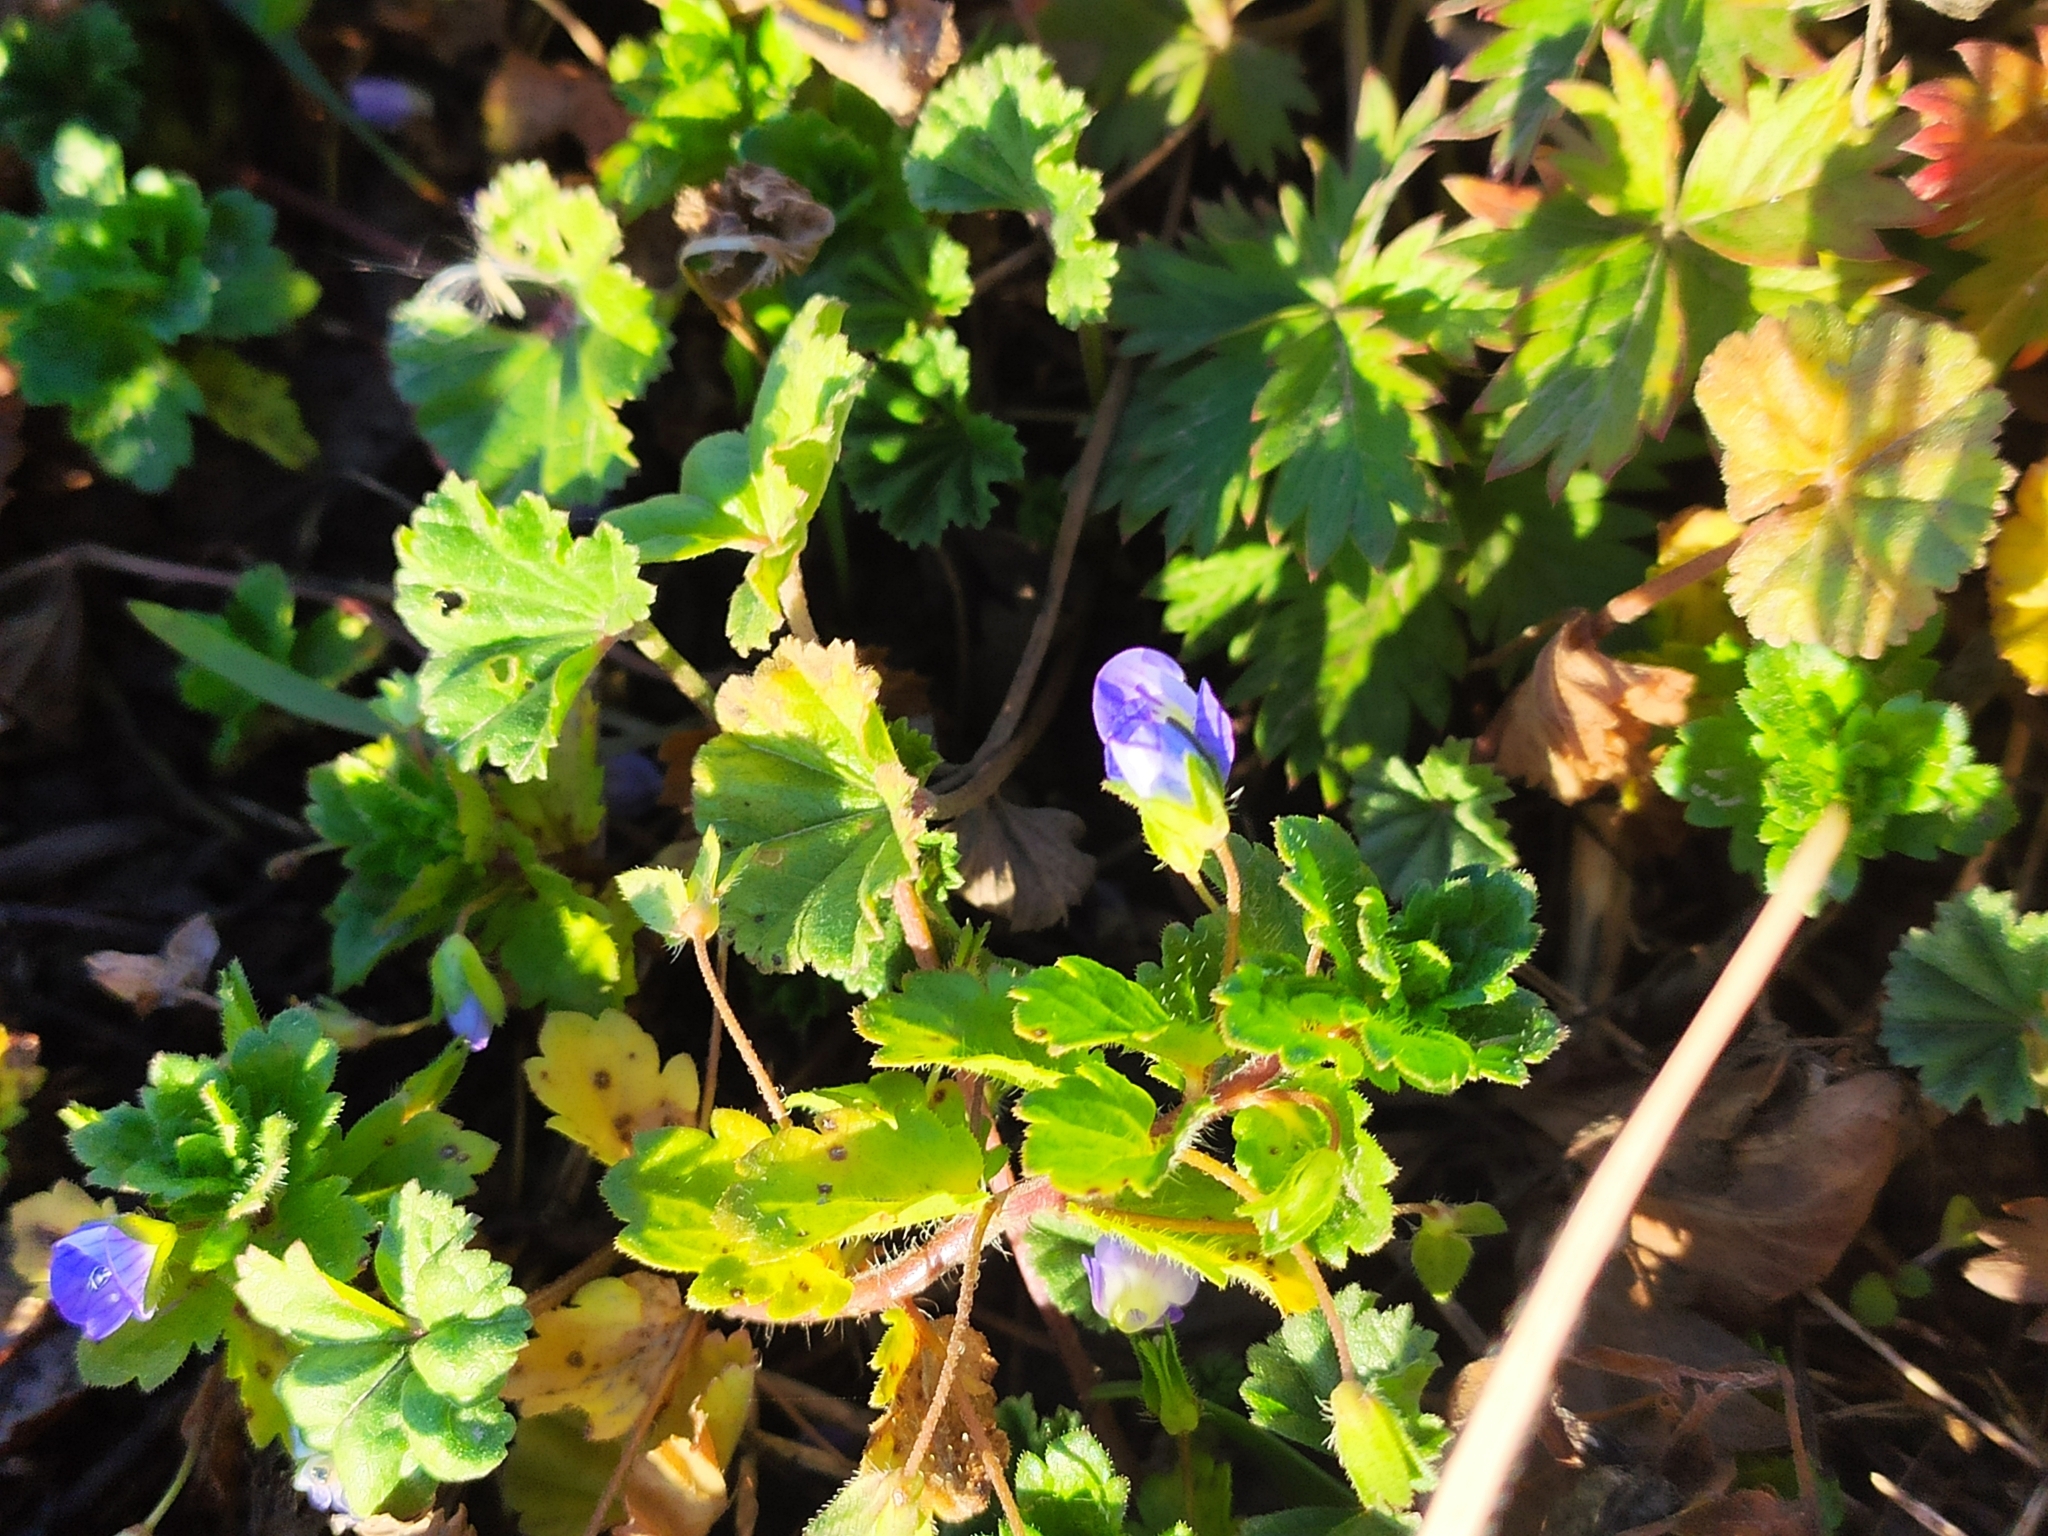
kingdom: Plantae
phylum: Tracheophyta
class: Magnoliopsida
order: Lamiales
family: Plantaginaceae
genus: Veronica
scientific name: Veronica persica
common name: Common field-speedwell
